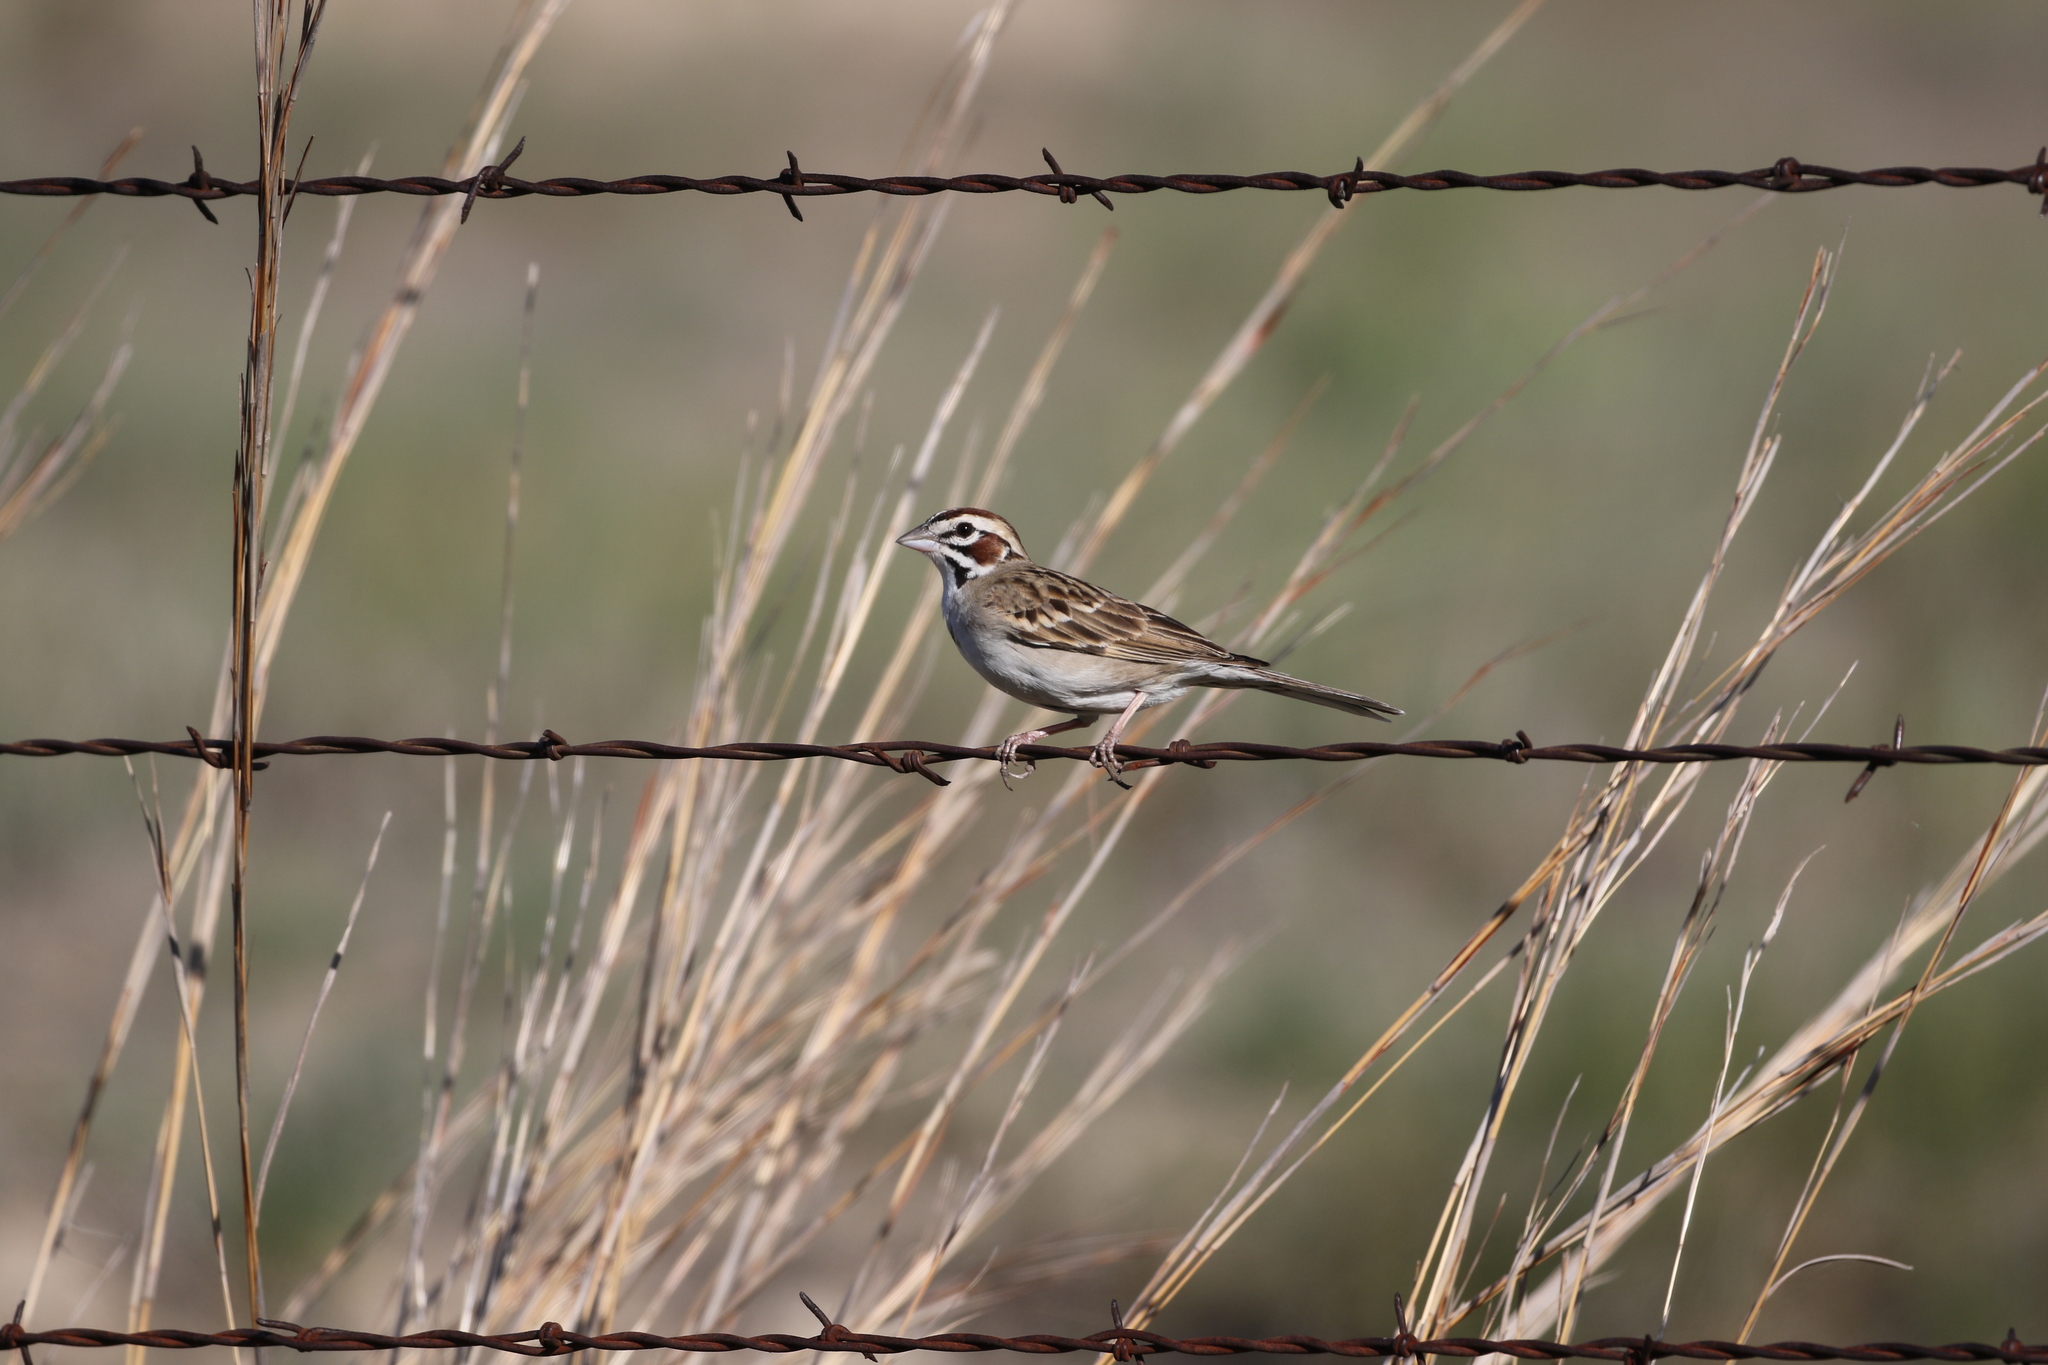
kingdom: Animalia
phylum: Chordata
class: Aves
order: Passeriformes
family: Passerellidae
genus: Chondestes
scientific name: Chondestes grammacus
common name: Lark sparrow
